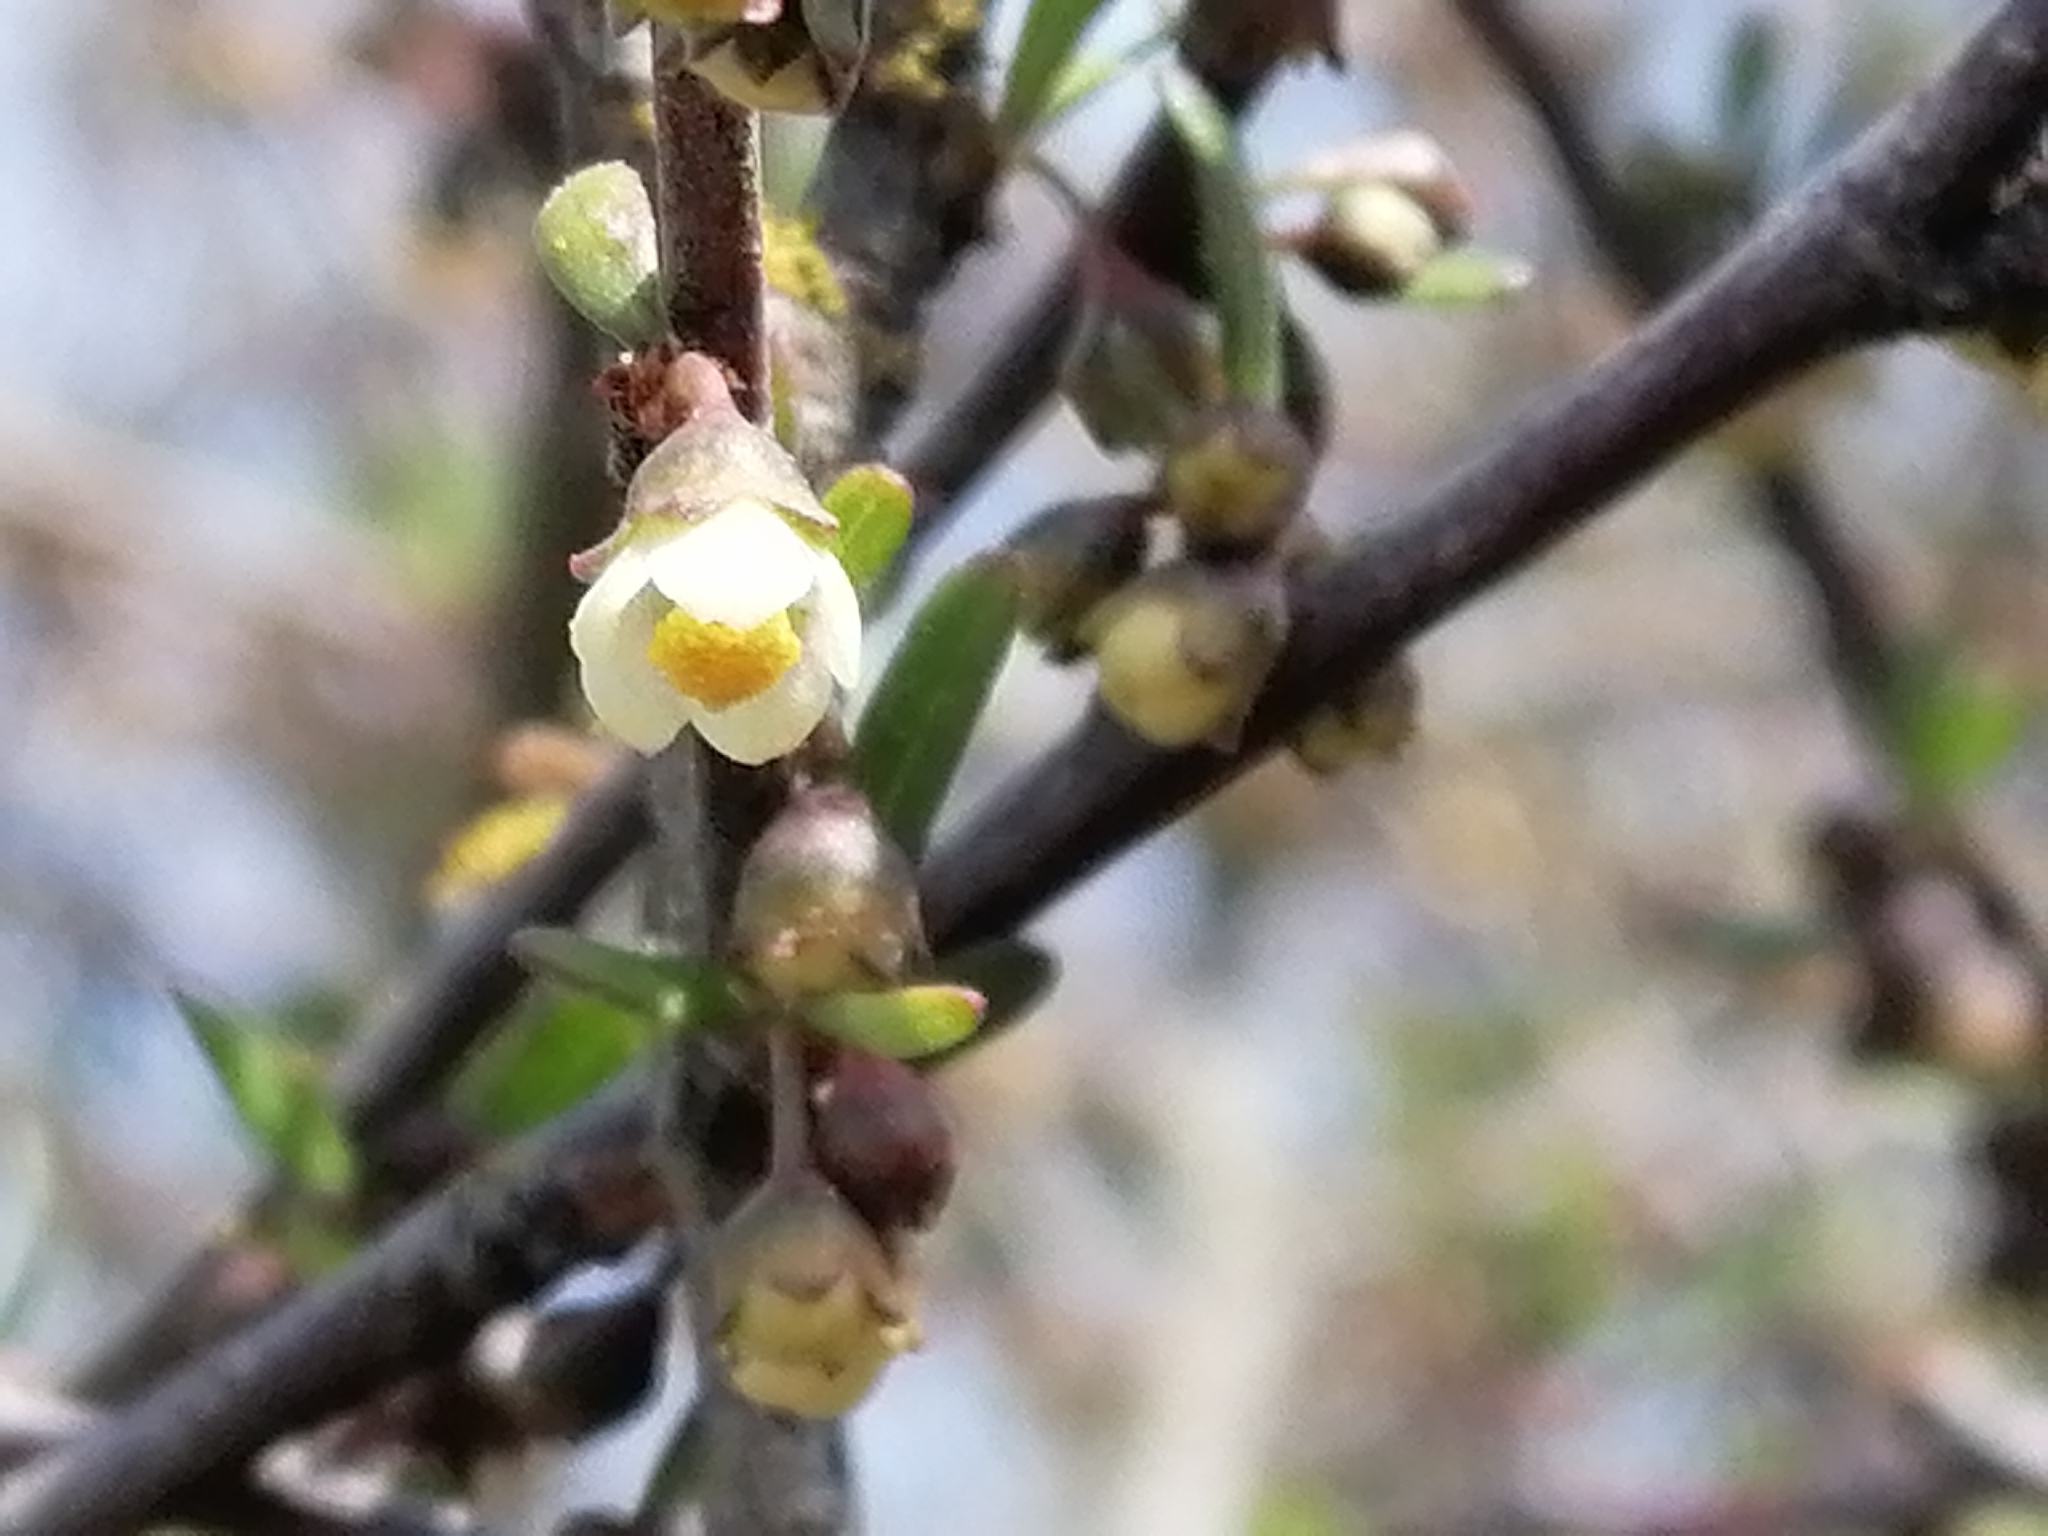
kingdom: Plantae
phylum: Tracheophyta
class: Magnoliopsida
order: Malvales
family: Malvaceae
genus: Plagianthus
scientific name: Plagianthus divaricatus
